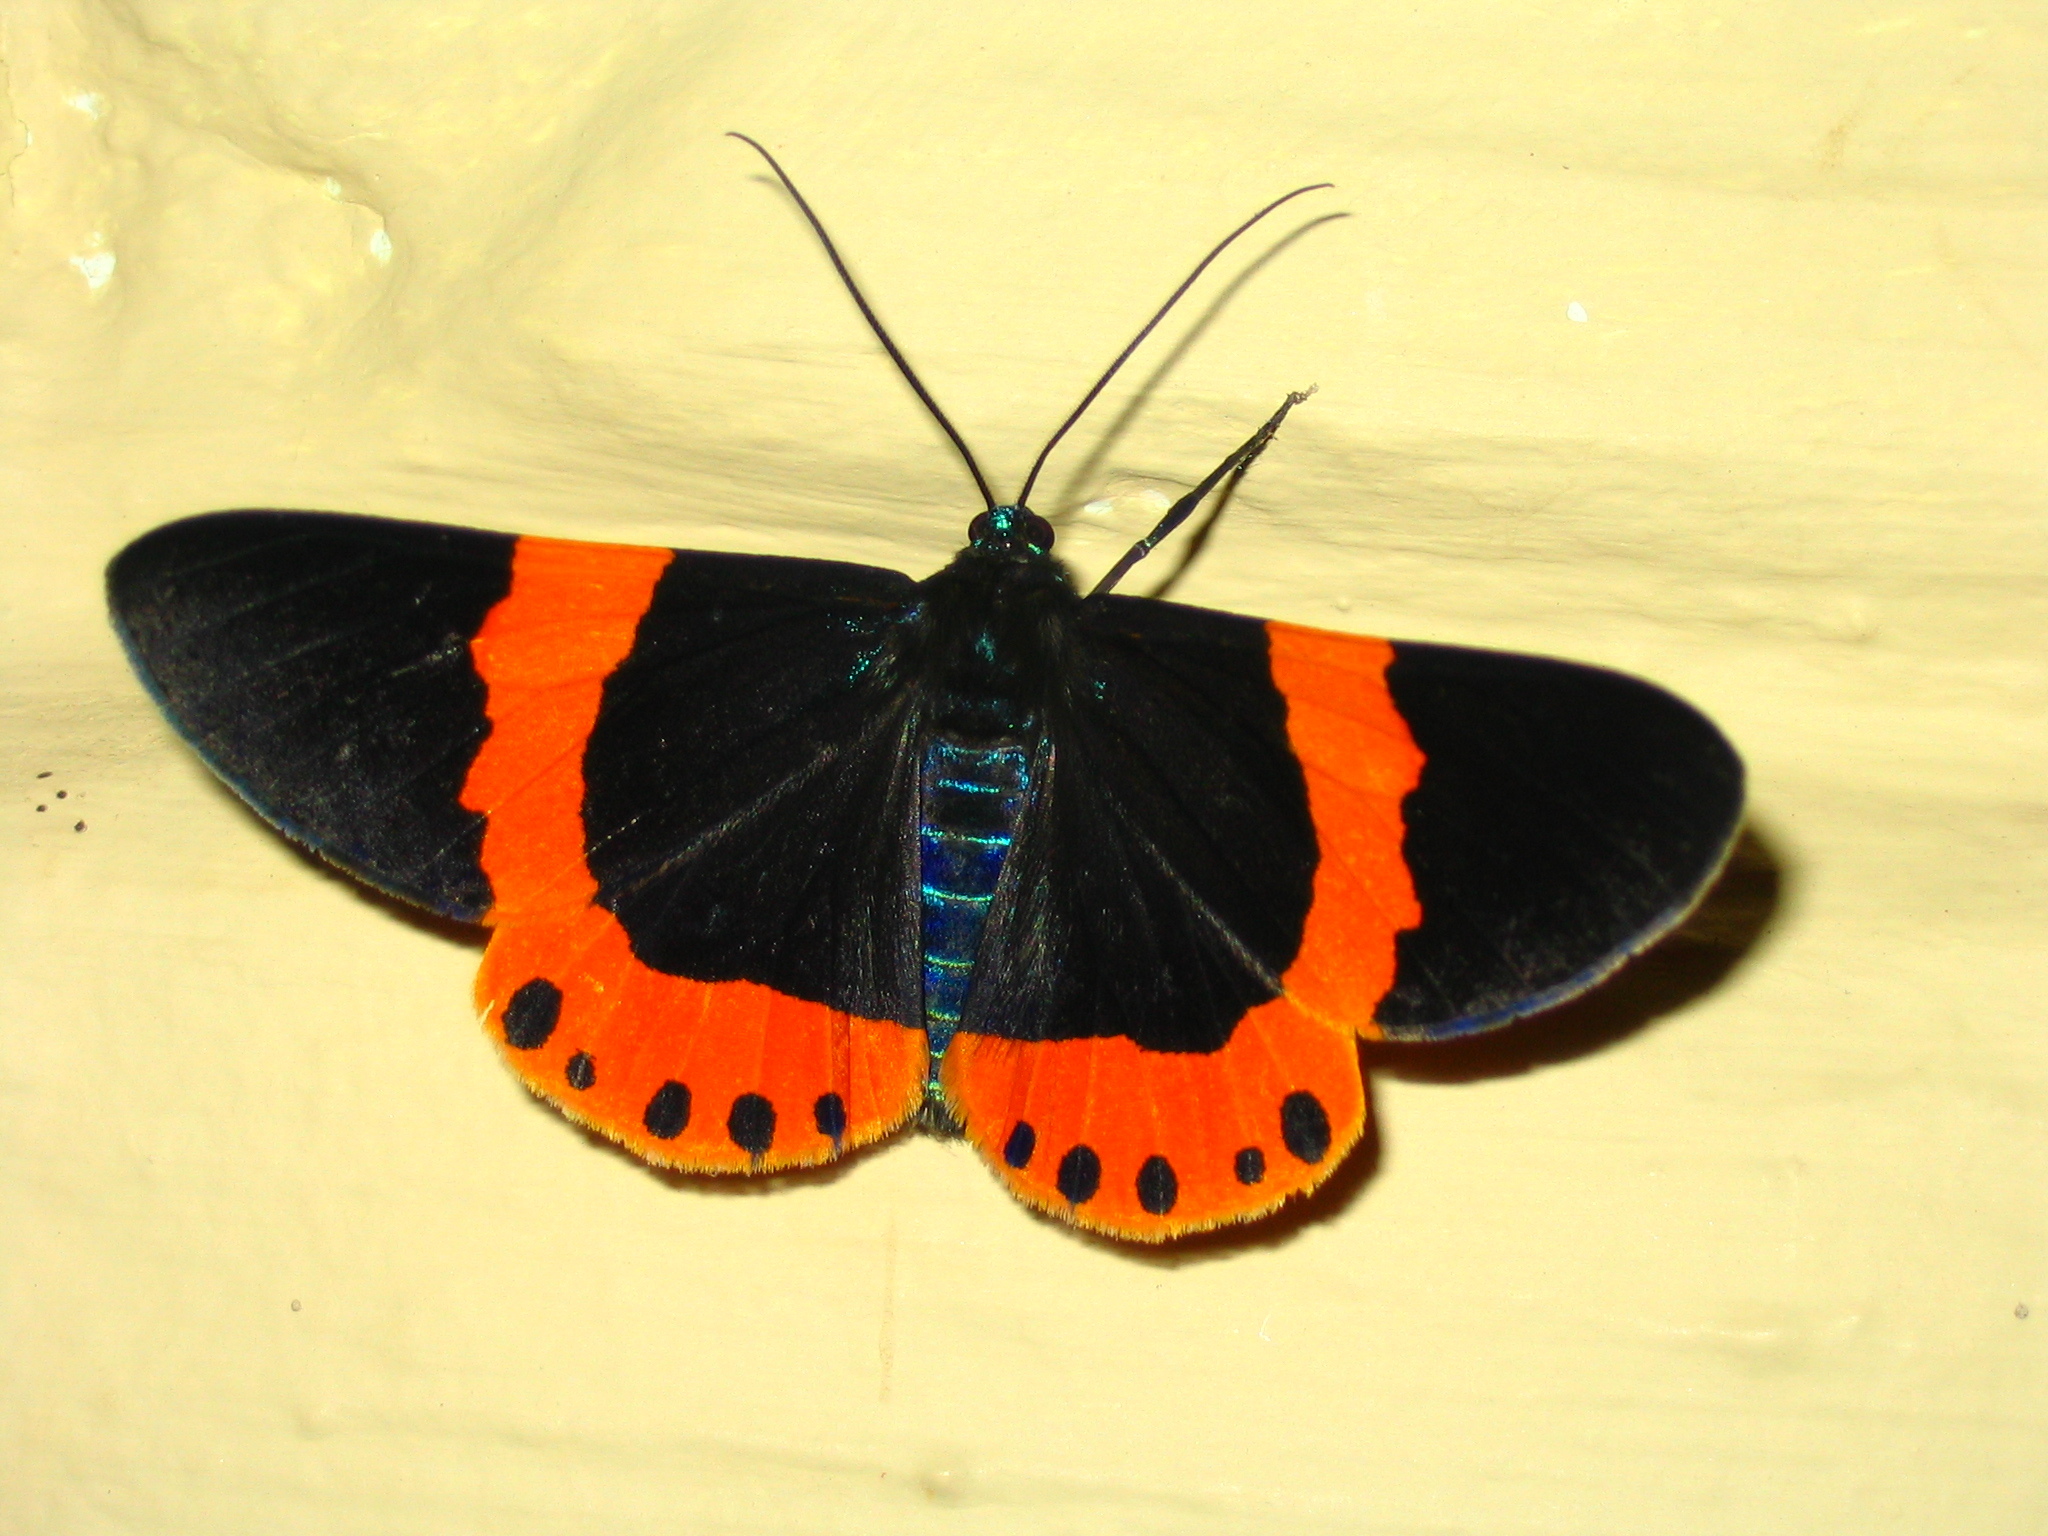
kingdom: Animalia
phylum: Arthropoda
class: Insecta
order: Lepidoptera
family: Geometridae
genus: Milionia
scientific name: Milionia basalis
